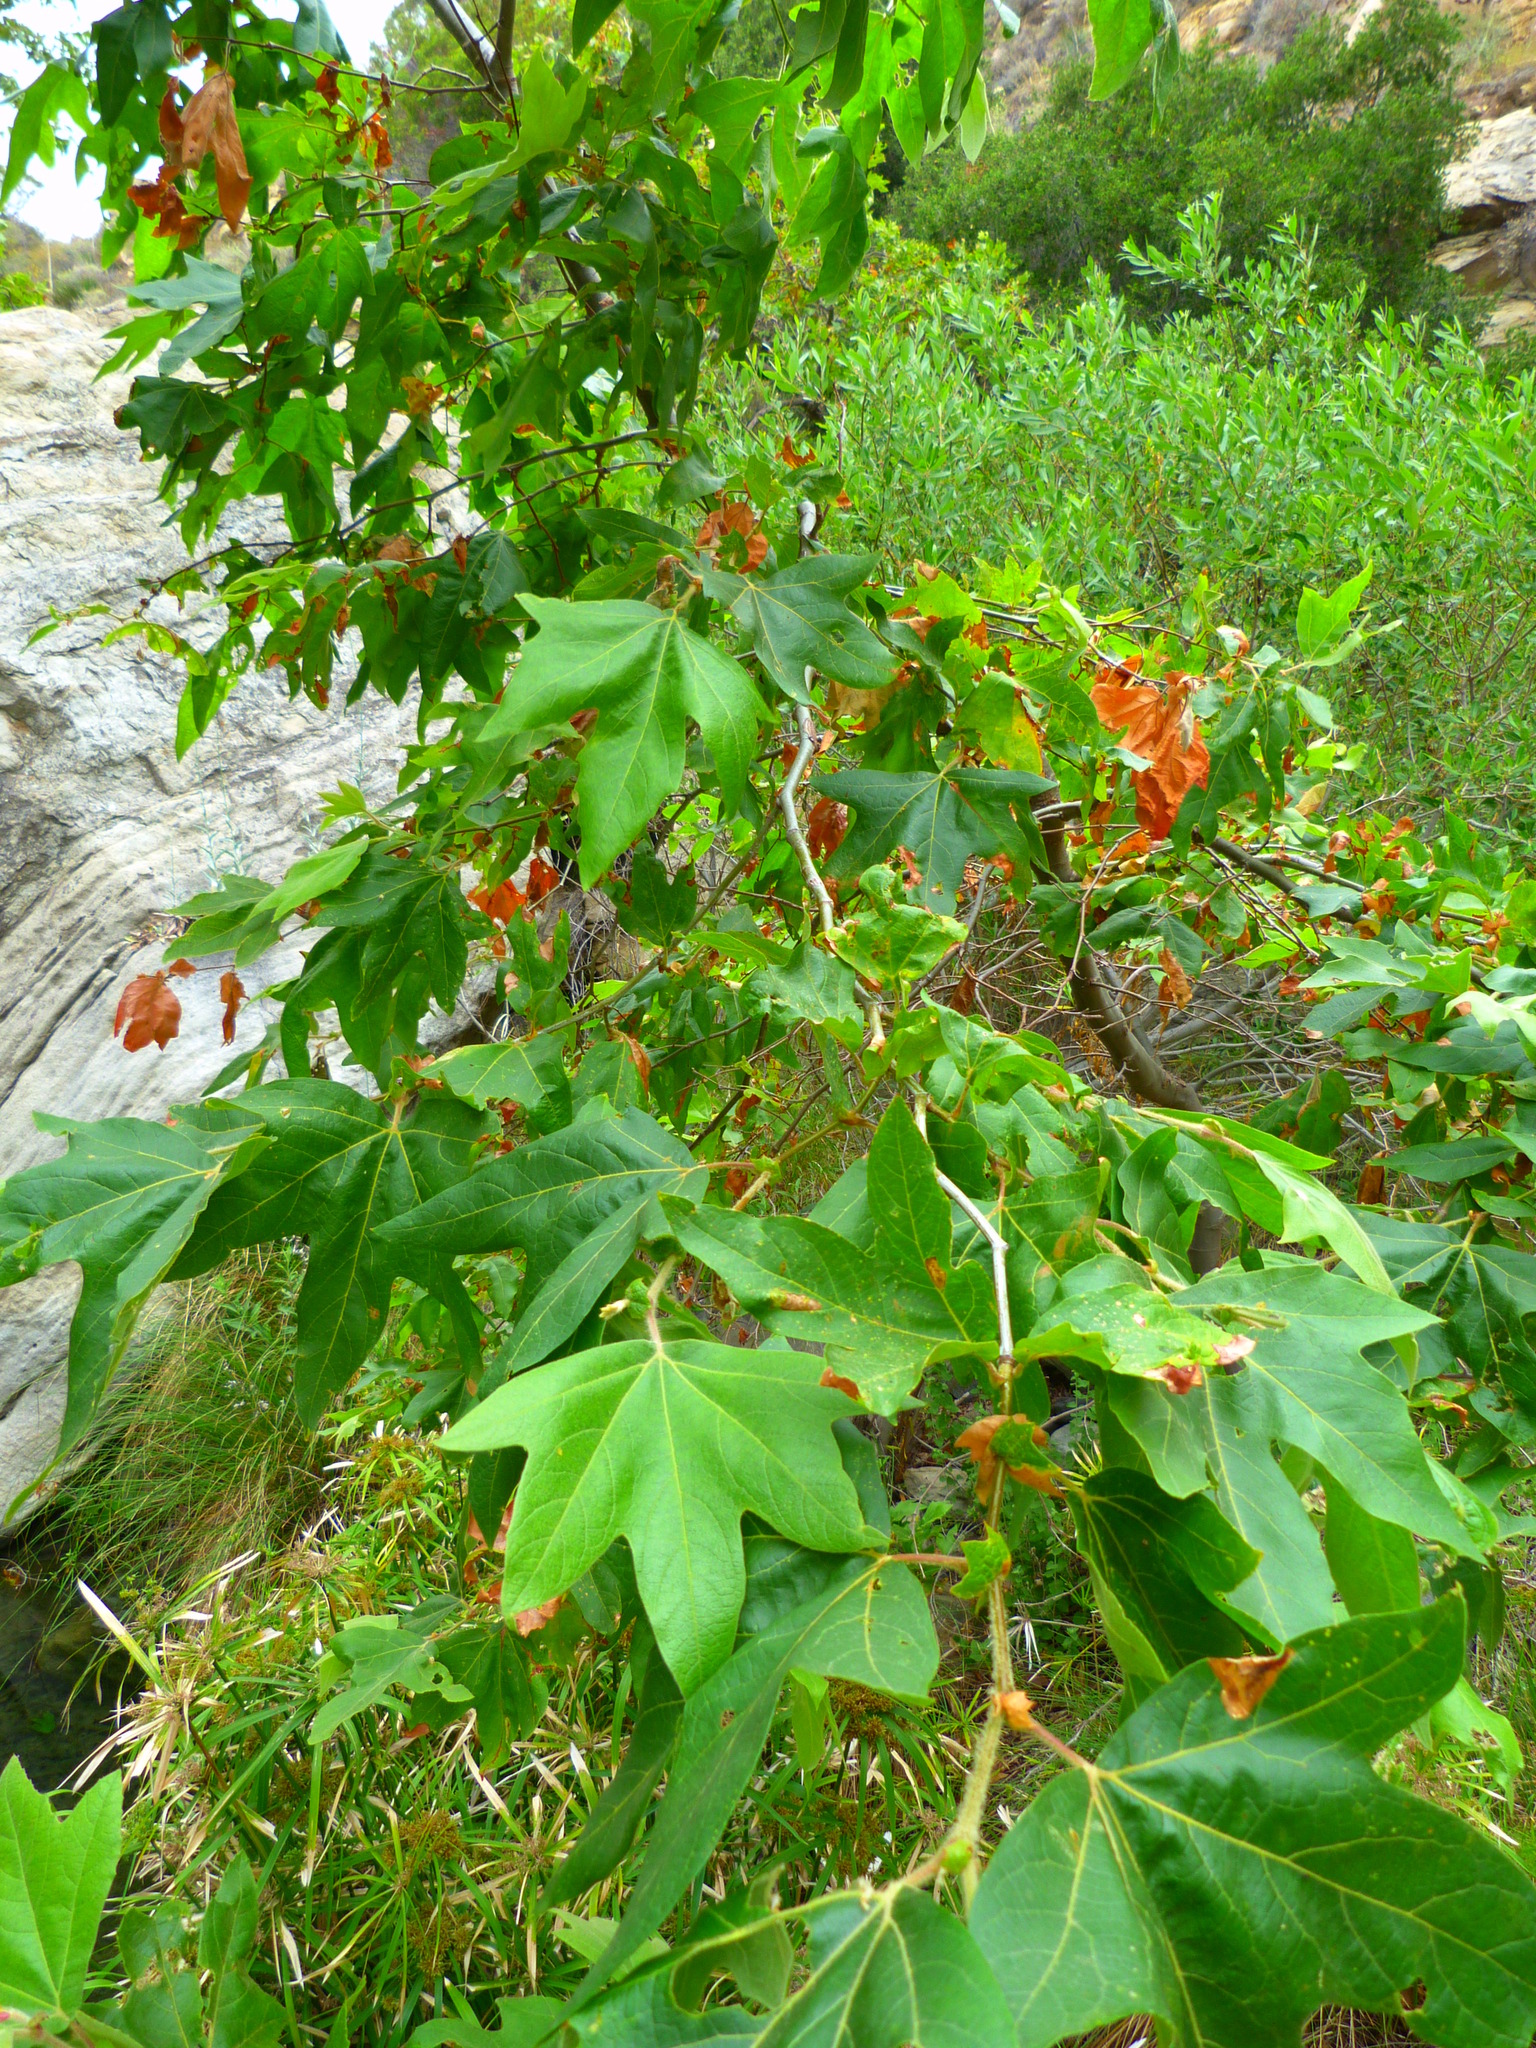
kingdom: Plantae
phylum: Tracheophyta
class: Magnoliopsida
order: Proteales
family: Platanaceae
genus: Platanus
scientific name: Platanus racemosa
